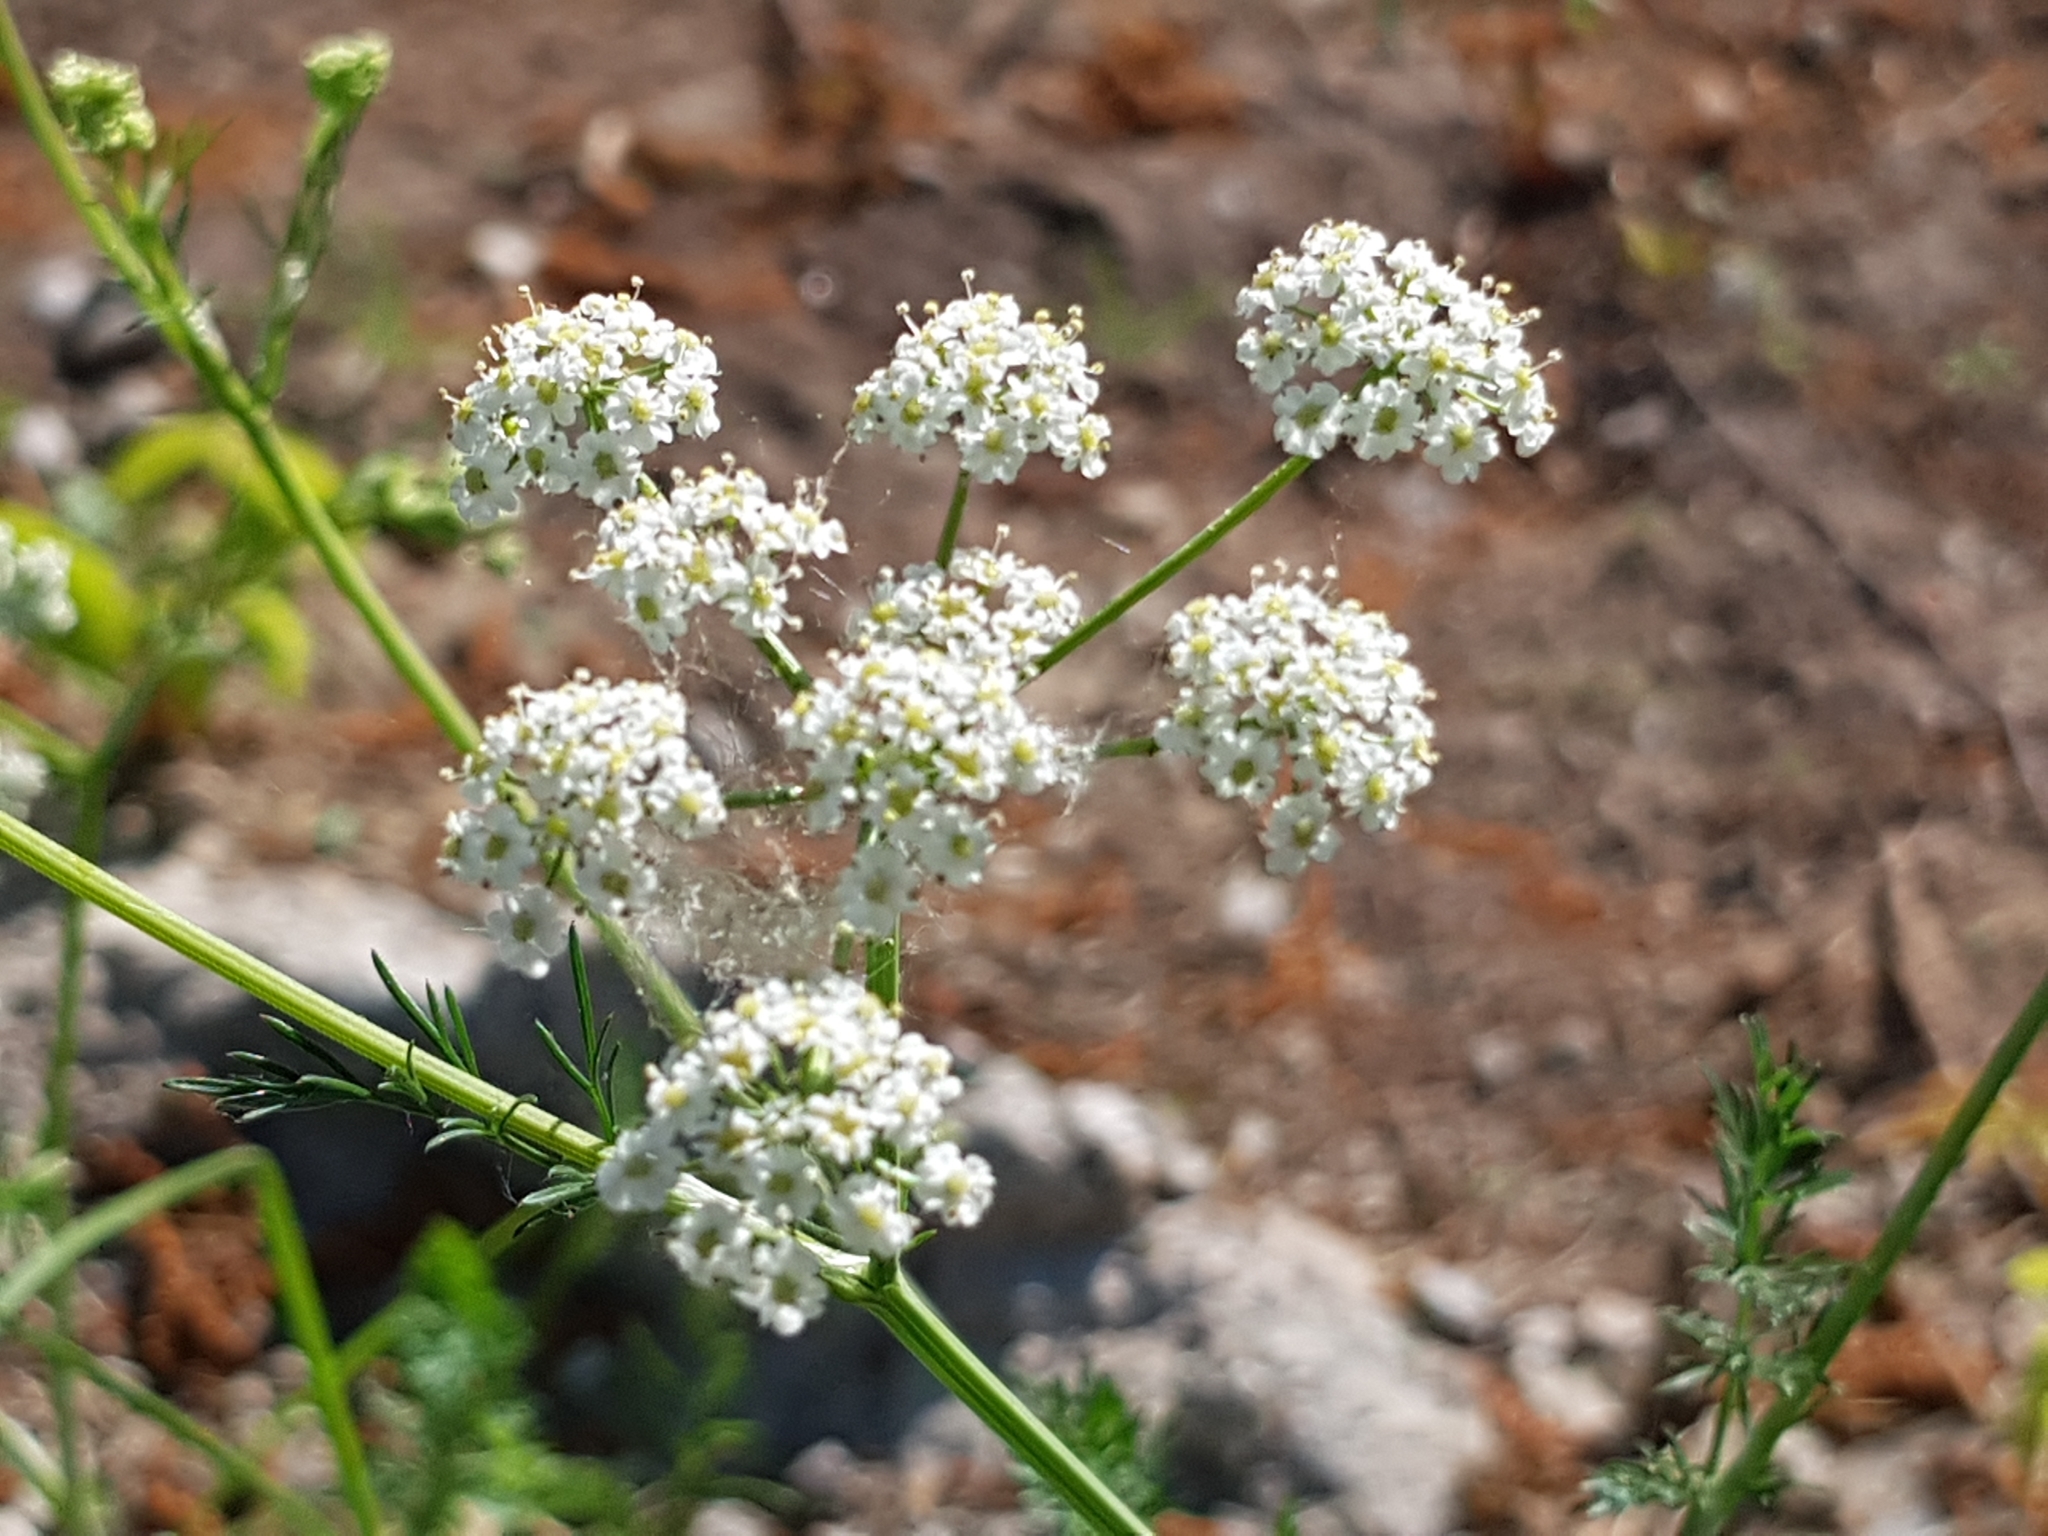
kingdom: Plantae
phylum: Tracheophyta
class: Magnoliopsida
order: Apiales
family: Apiaceae
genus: Carum
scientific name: Carum carvi
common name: Caraway
